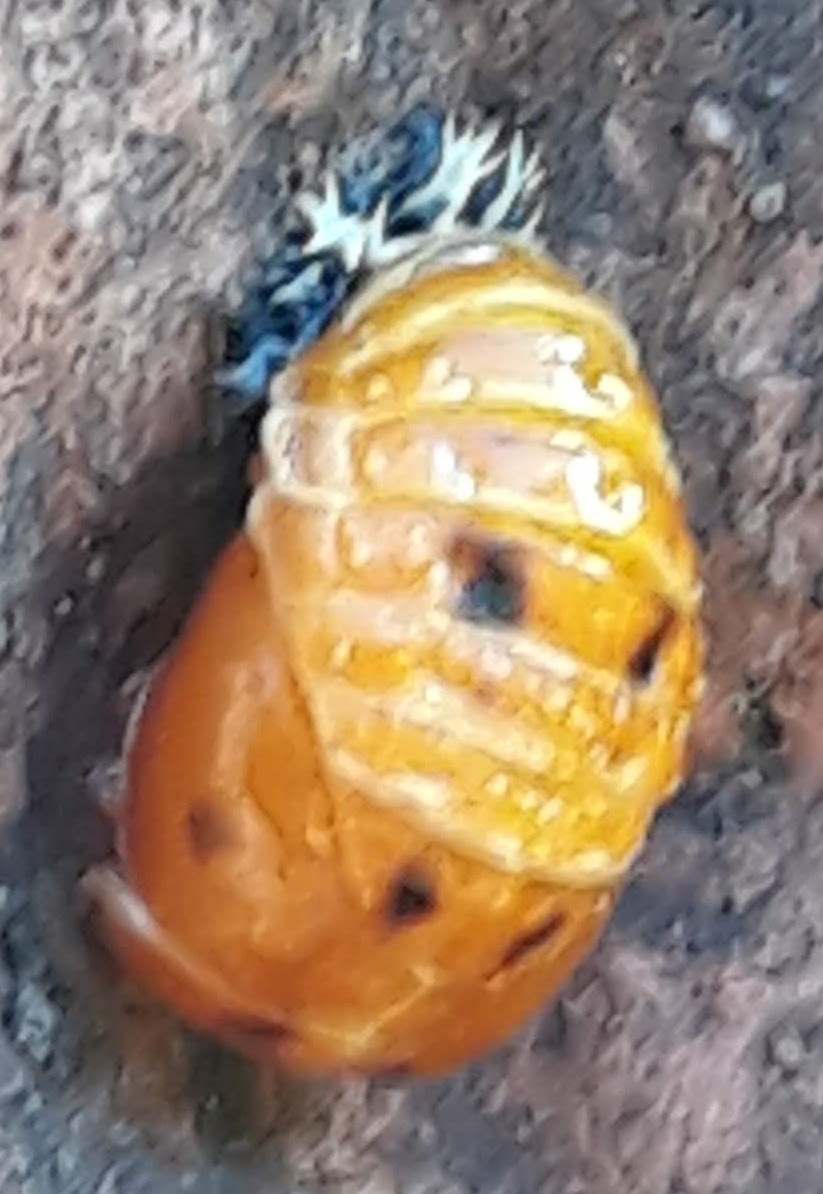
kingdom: Animalia
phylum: Arthropoda
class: Insecta
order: Coleoptera
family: Coccinellidae
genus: Harmonia
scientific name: Harmonia axyridis
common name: Harlequin ladybird
